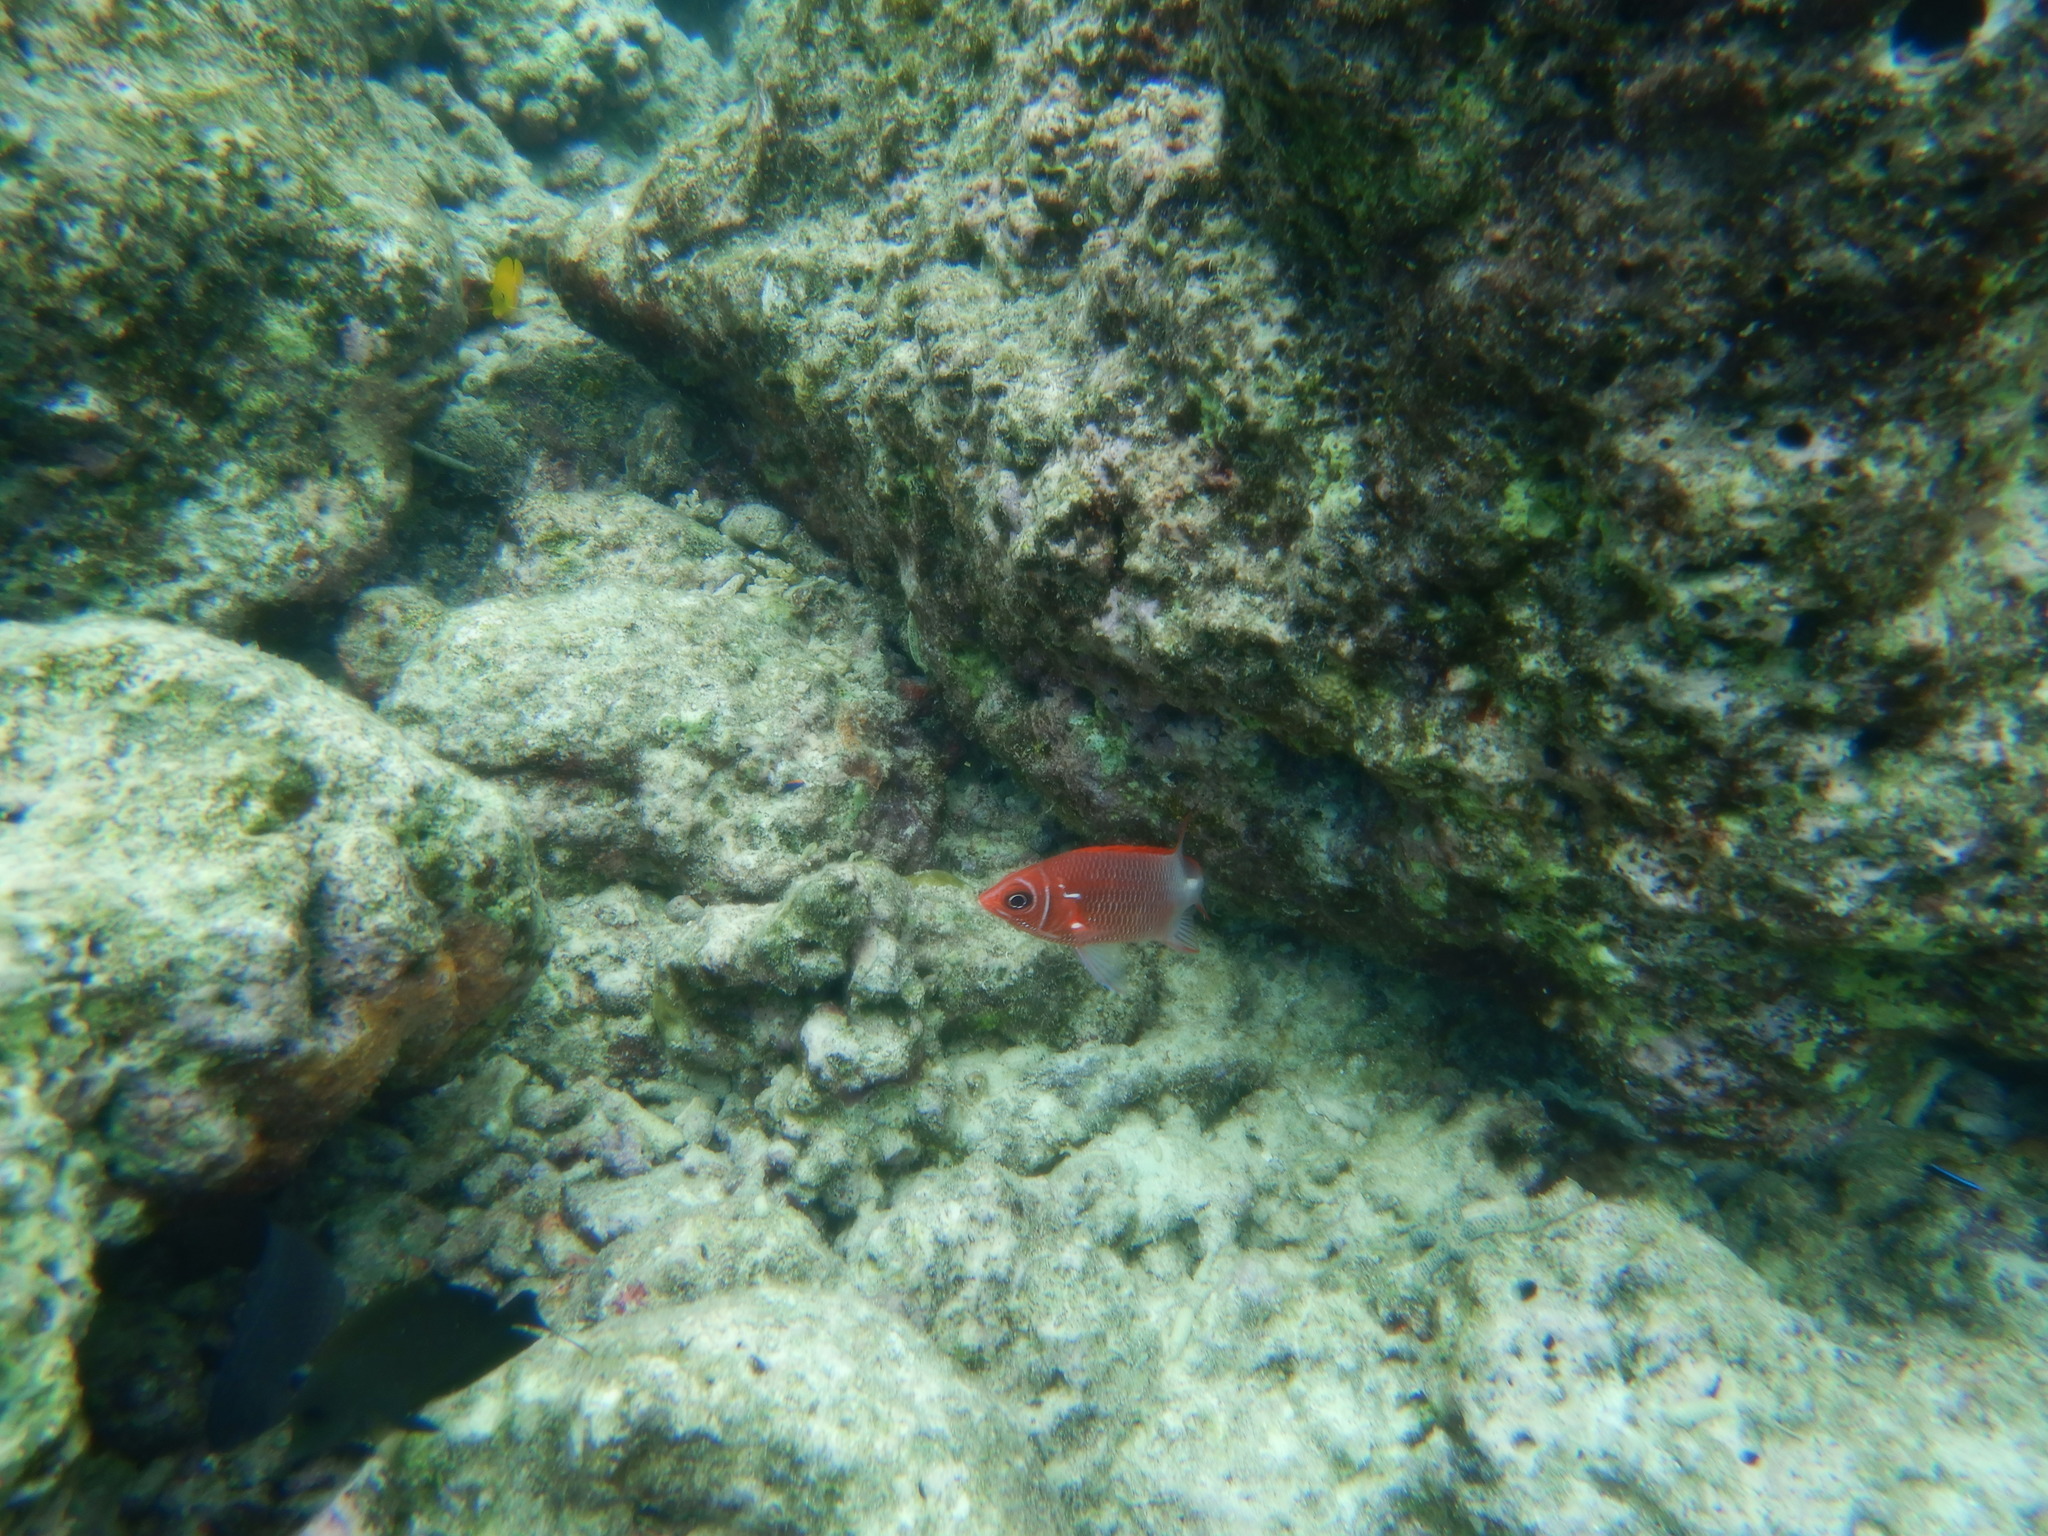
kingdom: Animalia
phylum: Chordata
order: Beryciformes
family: Holocentridae
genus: Sargocentron
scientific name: Sargocentron caudimaculatum
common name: Fanfin soldier
